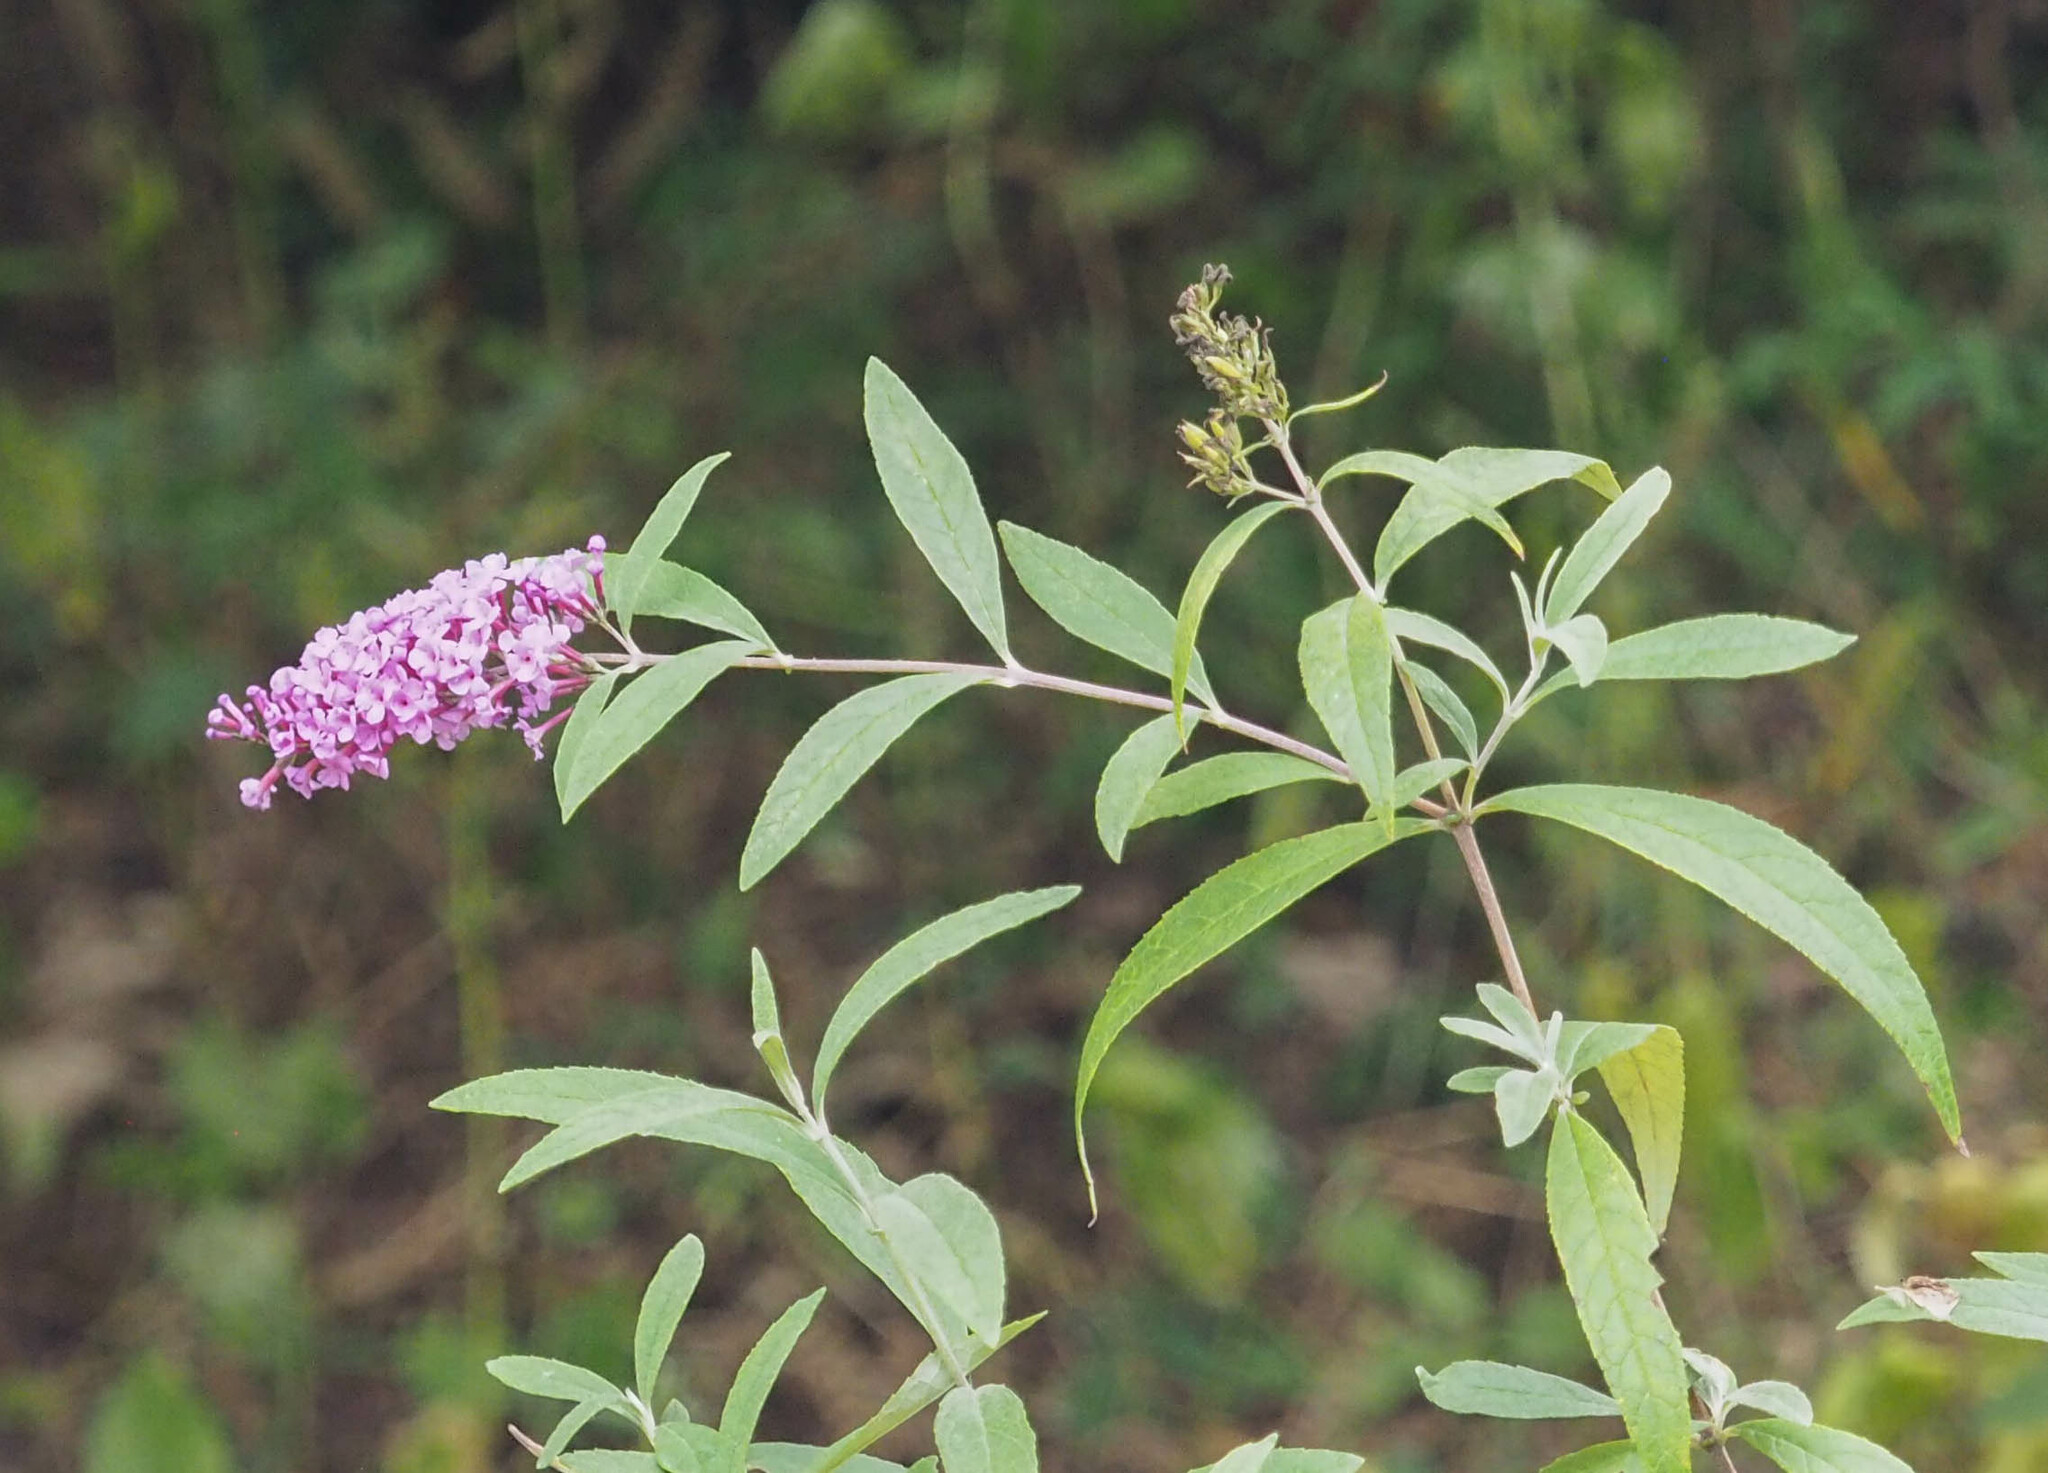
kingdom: Plantae
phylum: Tracheophyta
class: Magnoliopsida
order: Lamiales
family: Scrophulariaceae
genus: Buddleja
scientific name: Buddleja davidii
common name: Butterfly-bush
